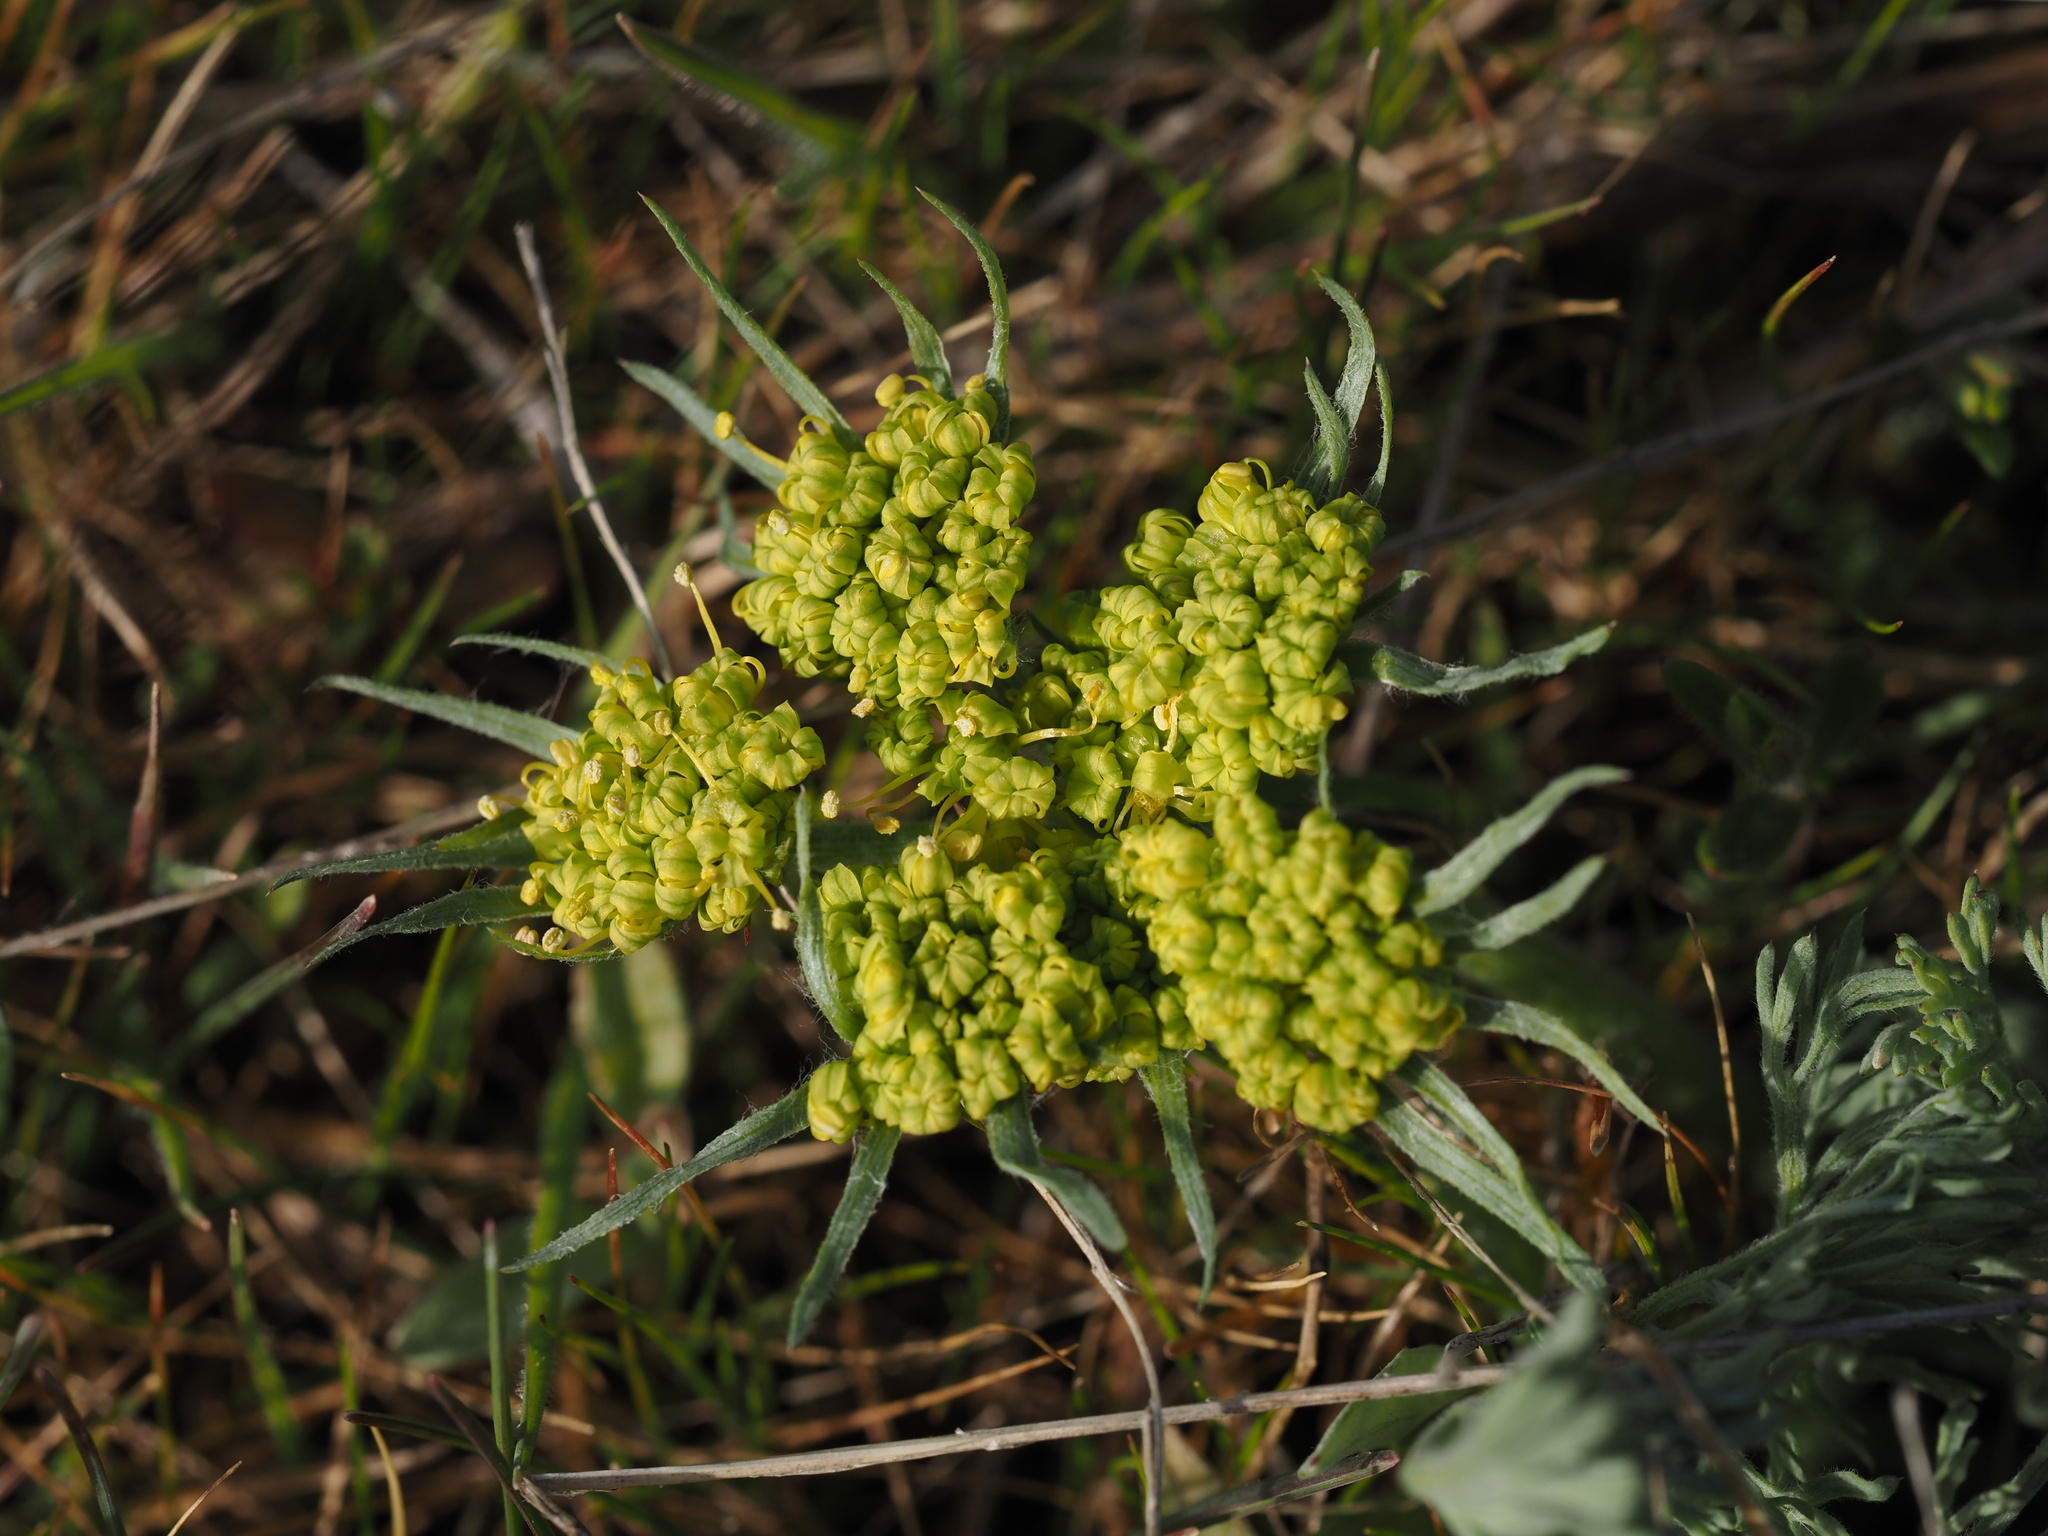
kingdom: Plantae
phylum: Tracheophyta
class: Magnoliopsida
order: Apiales
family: Apiaceae
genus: Lomatium
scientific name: Lomatium macrocarpum
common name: Big-seed biscuitroot
